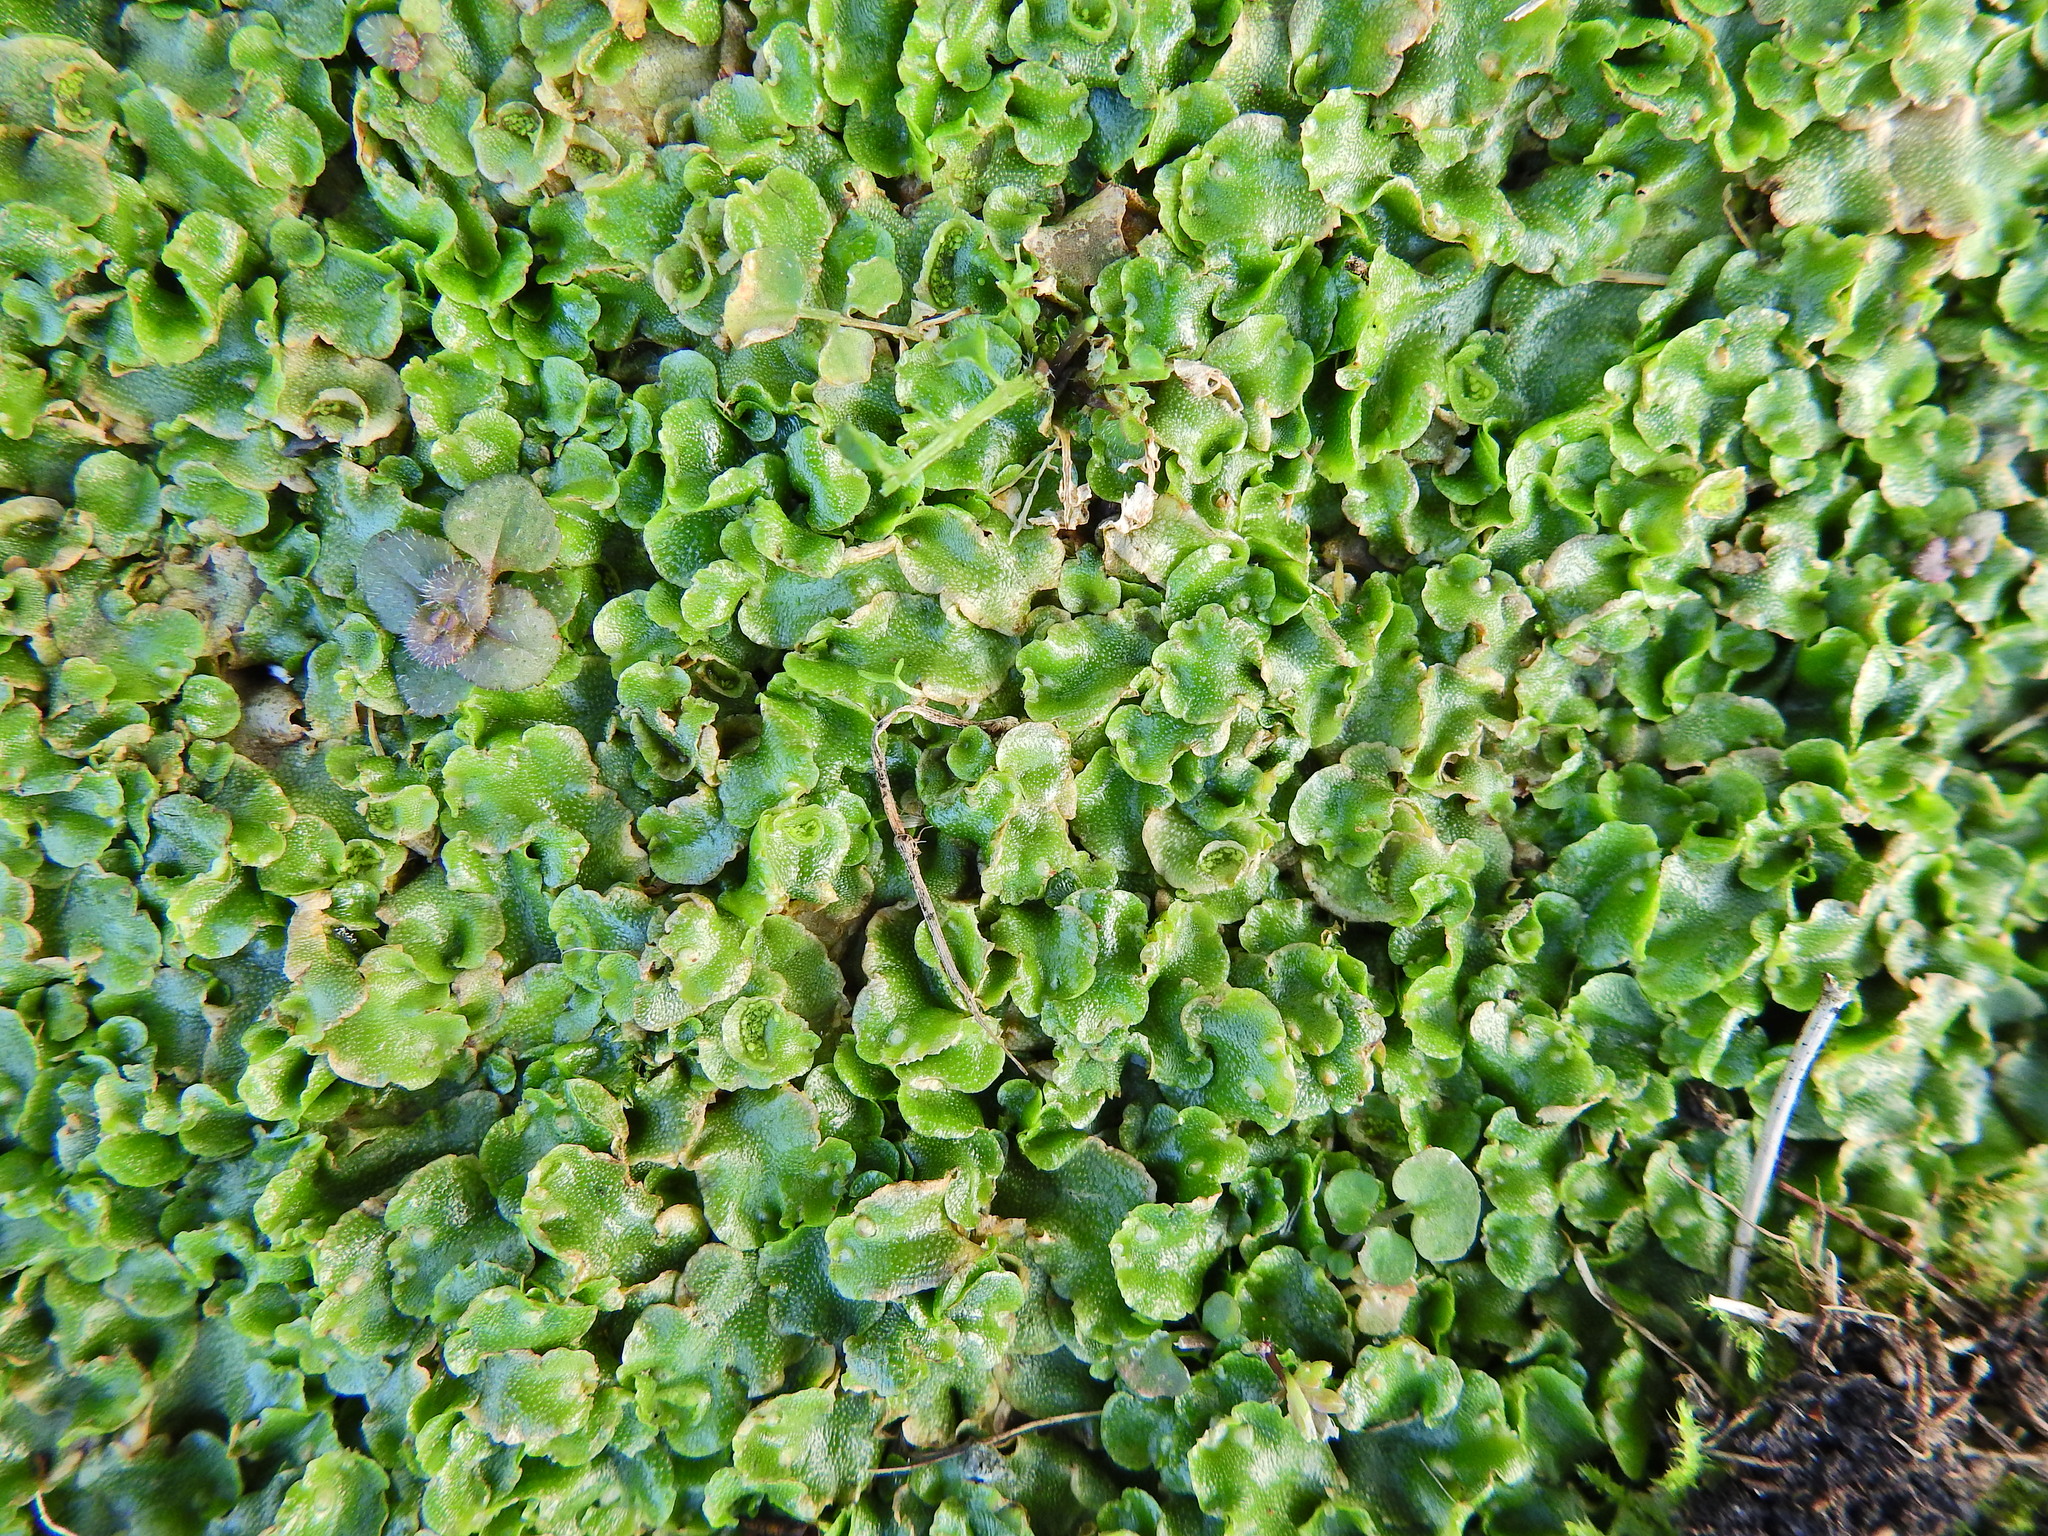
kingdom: Plantae
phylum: Marchantiophyta
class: Marchantiopsida
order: Lunulariales
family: Lunulariaceae
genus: Lunularia
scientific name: Lunularia cruciata
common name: Crescent-cup liverwort
